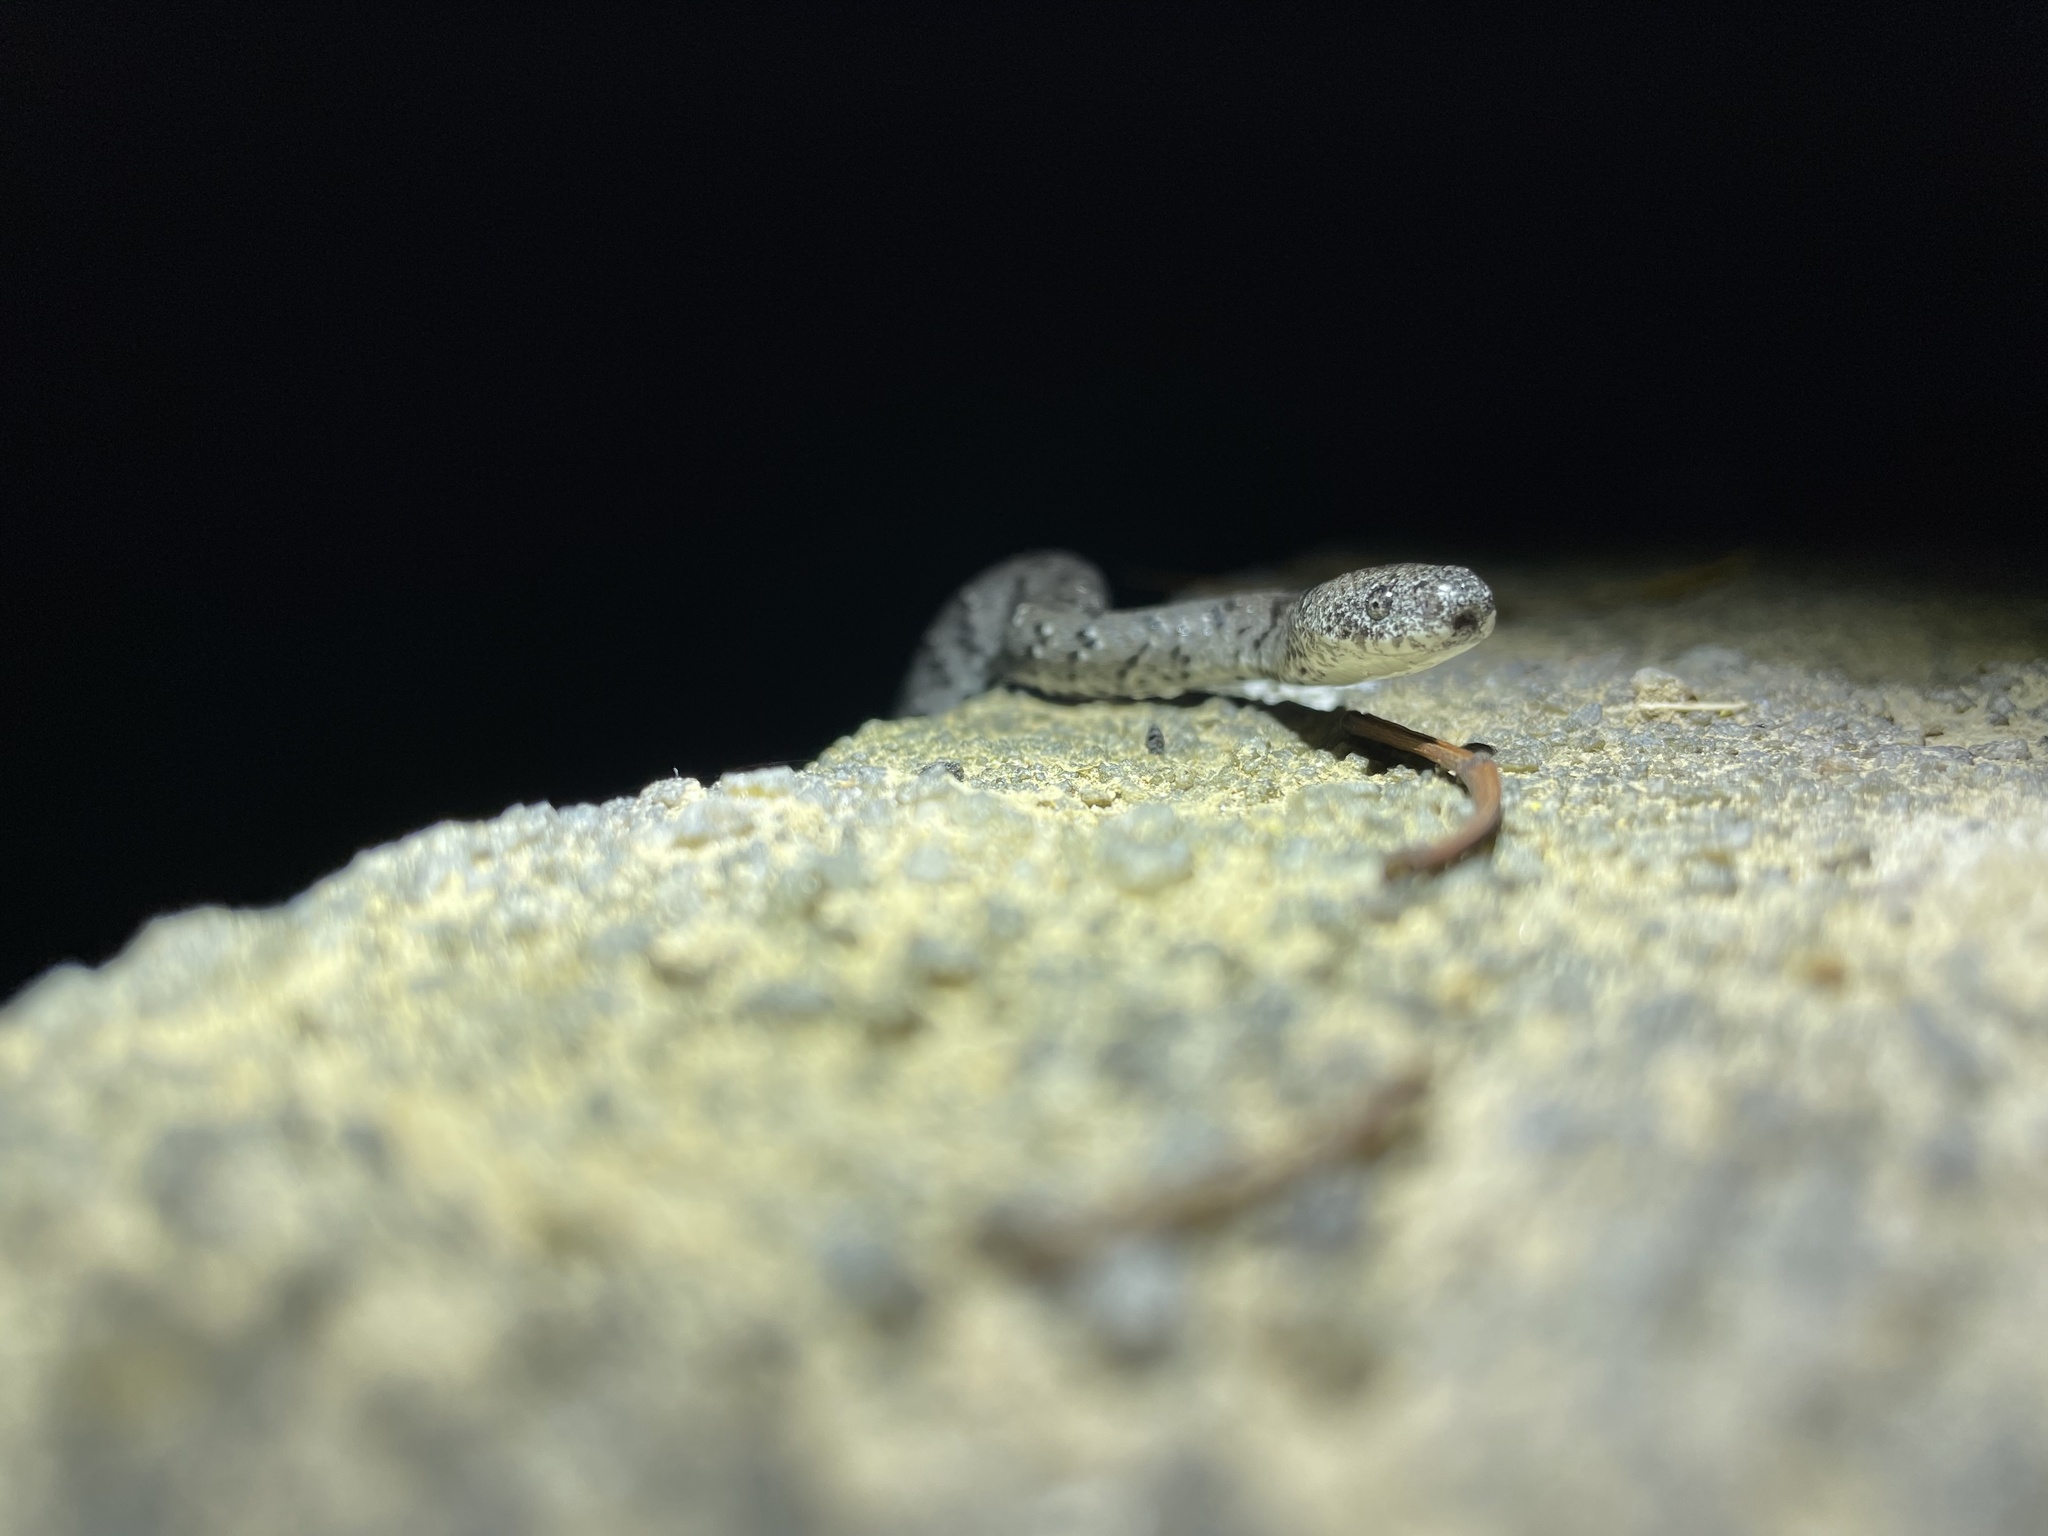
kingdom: Animalia
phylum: Chordata
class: Squamata
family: Pareidae
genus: Pareas
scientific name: Pareas margaritophorus
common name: Mountain slug snake
